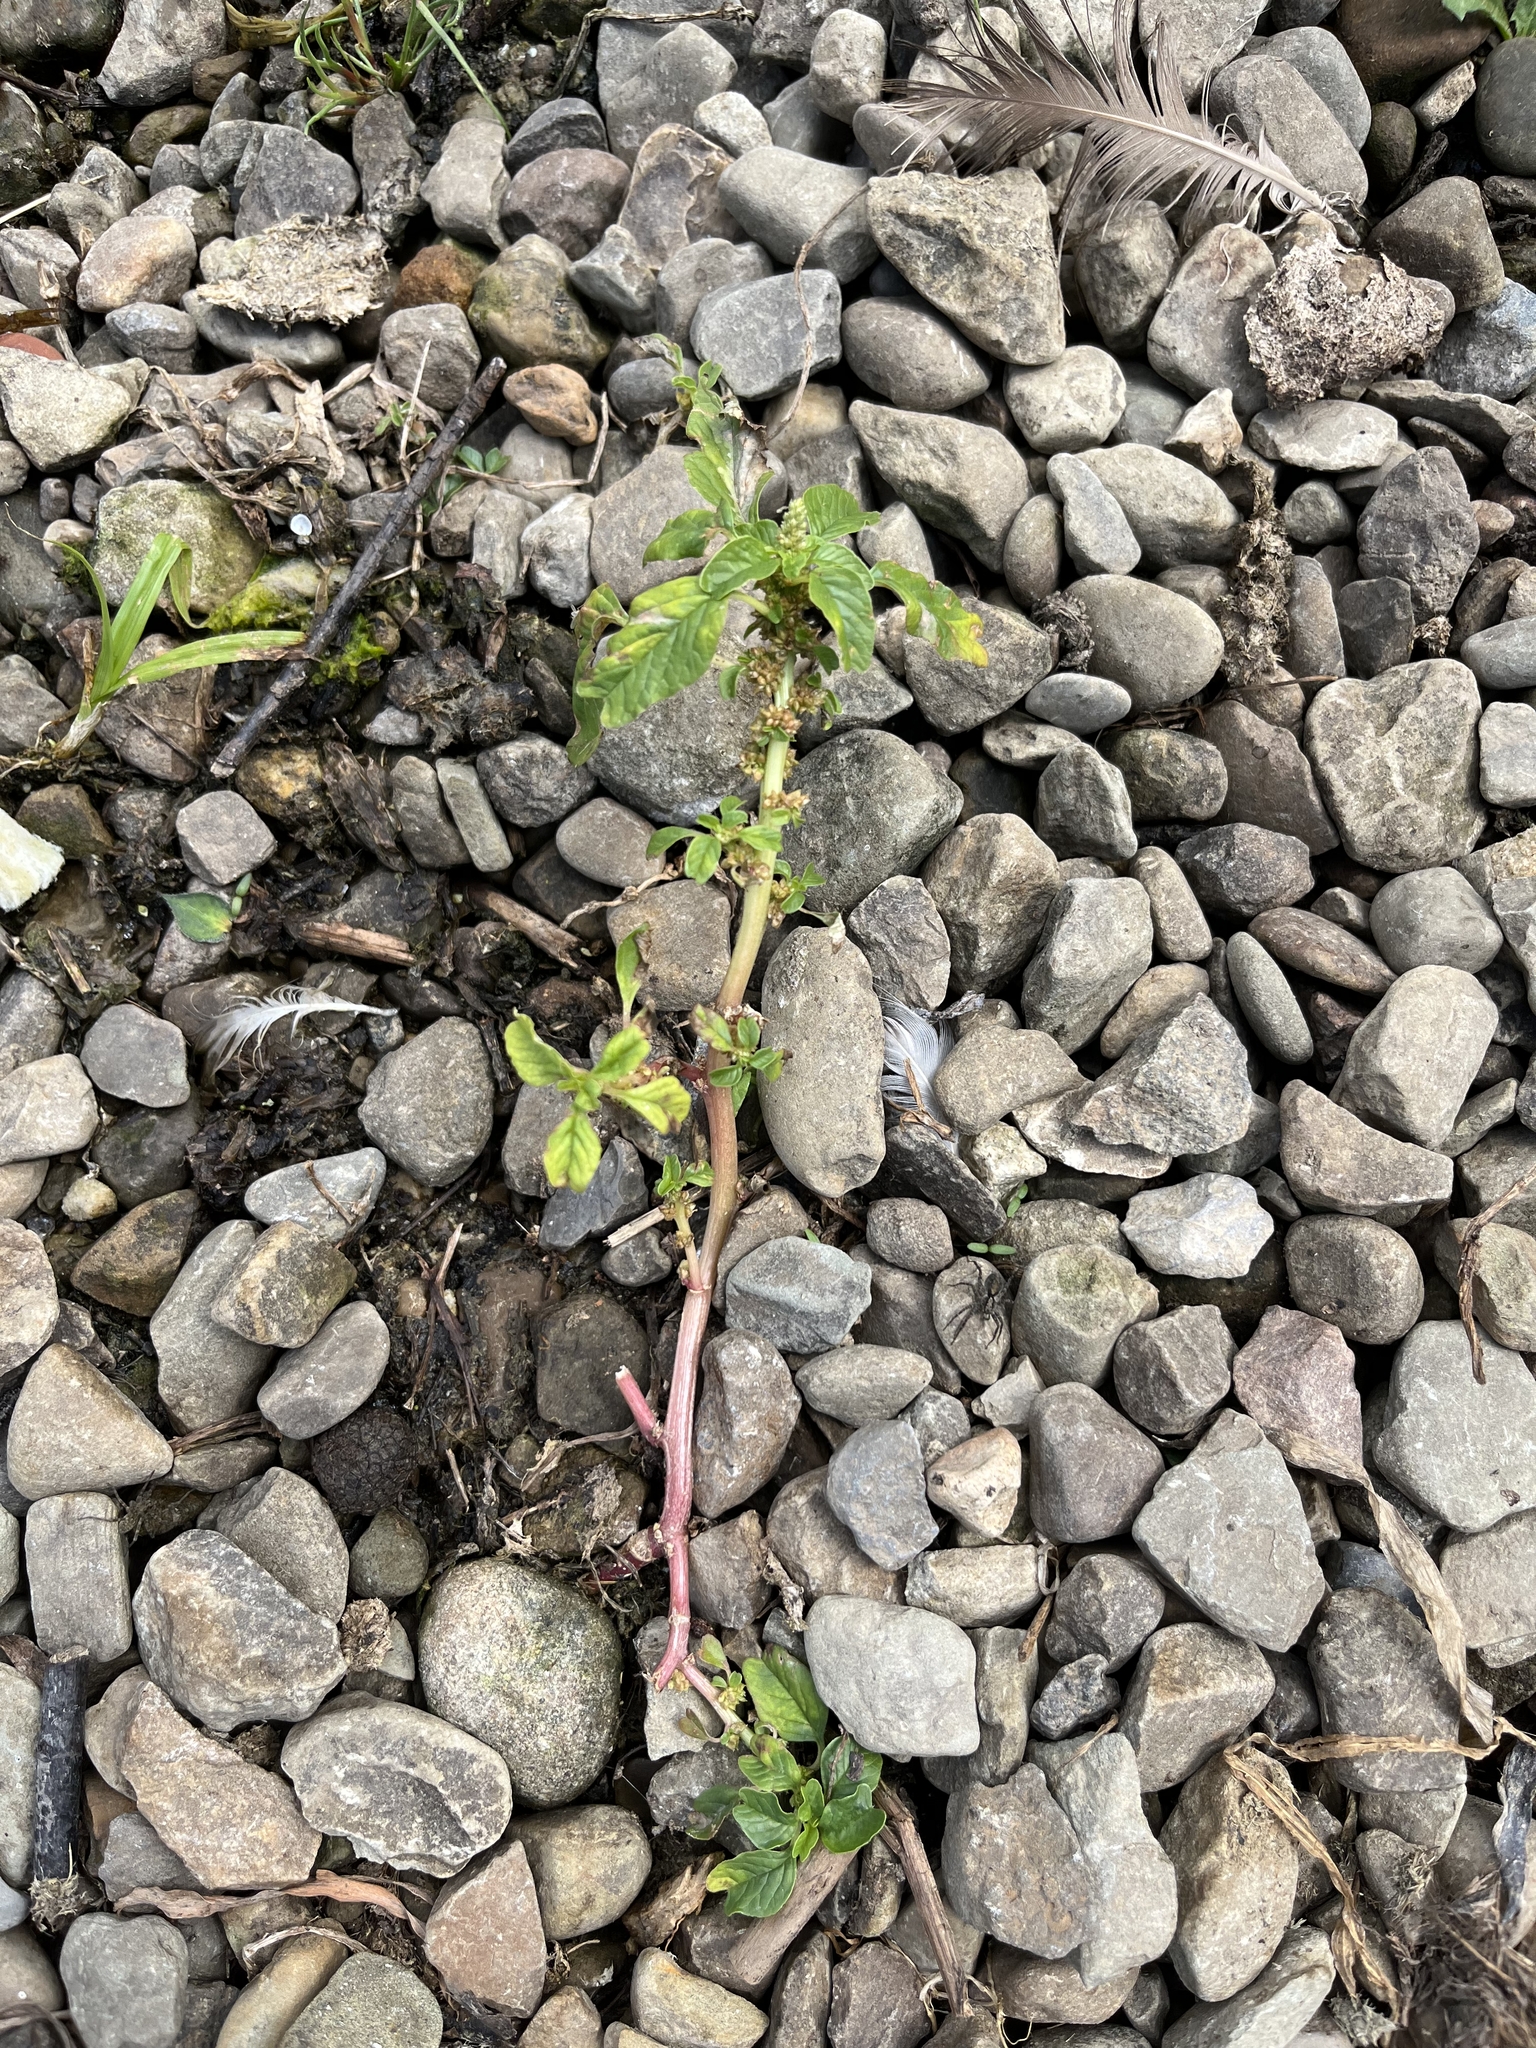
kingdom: Plantae
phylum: Tracheophyta
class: Magnoliopsida
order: Caryophyllales
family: Amaranthaceae
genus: Amaranthus
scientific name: Amaranthus blitum
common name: Purple amaranth
